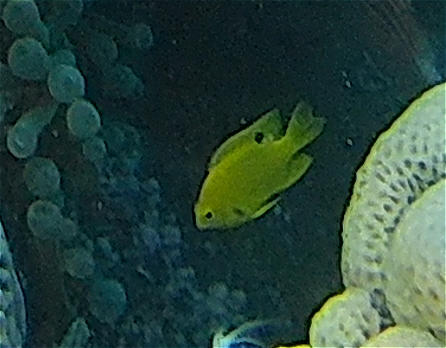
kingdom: Animalia
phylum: Chordata
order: Perciformes
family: Pomacentridae
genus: Pomacentrus
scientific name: Pomacentrus sulfureus
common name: Sulfur damsel
